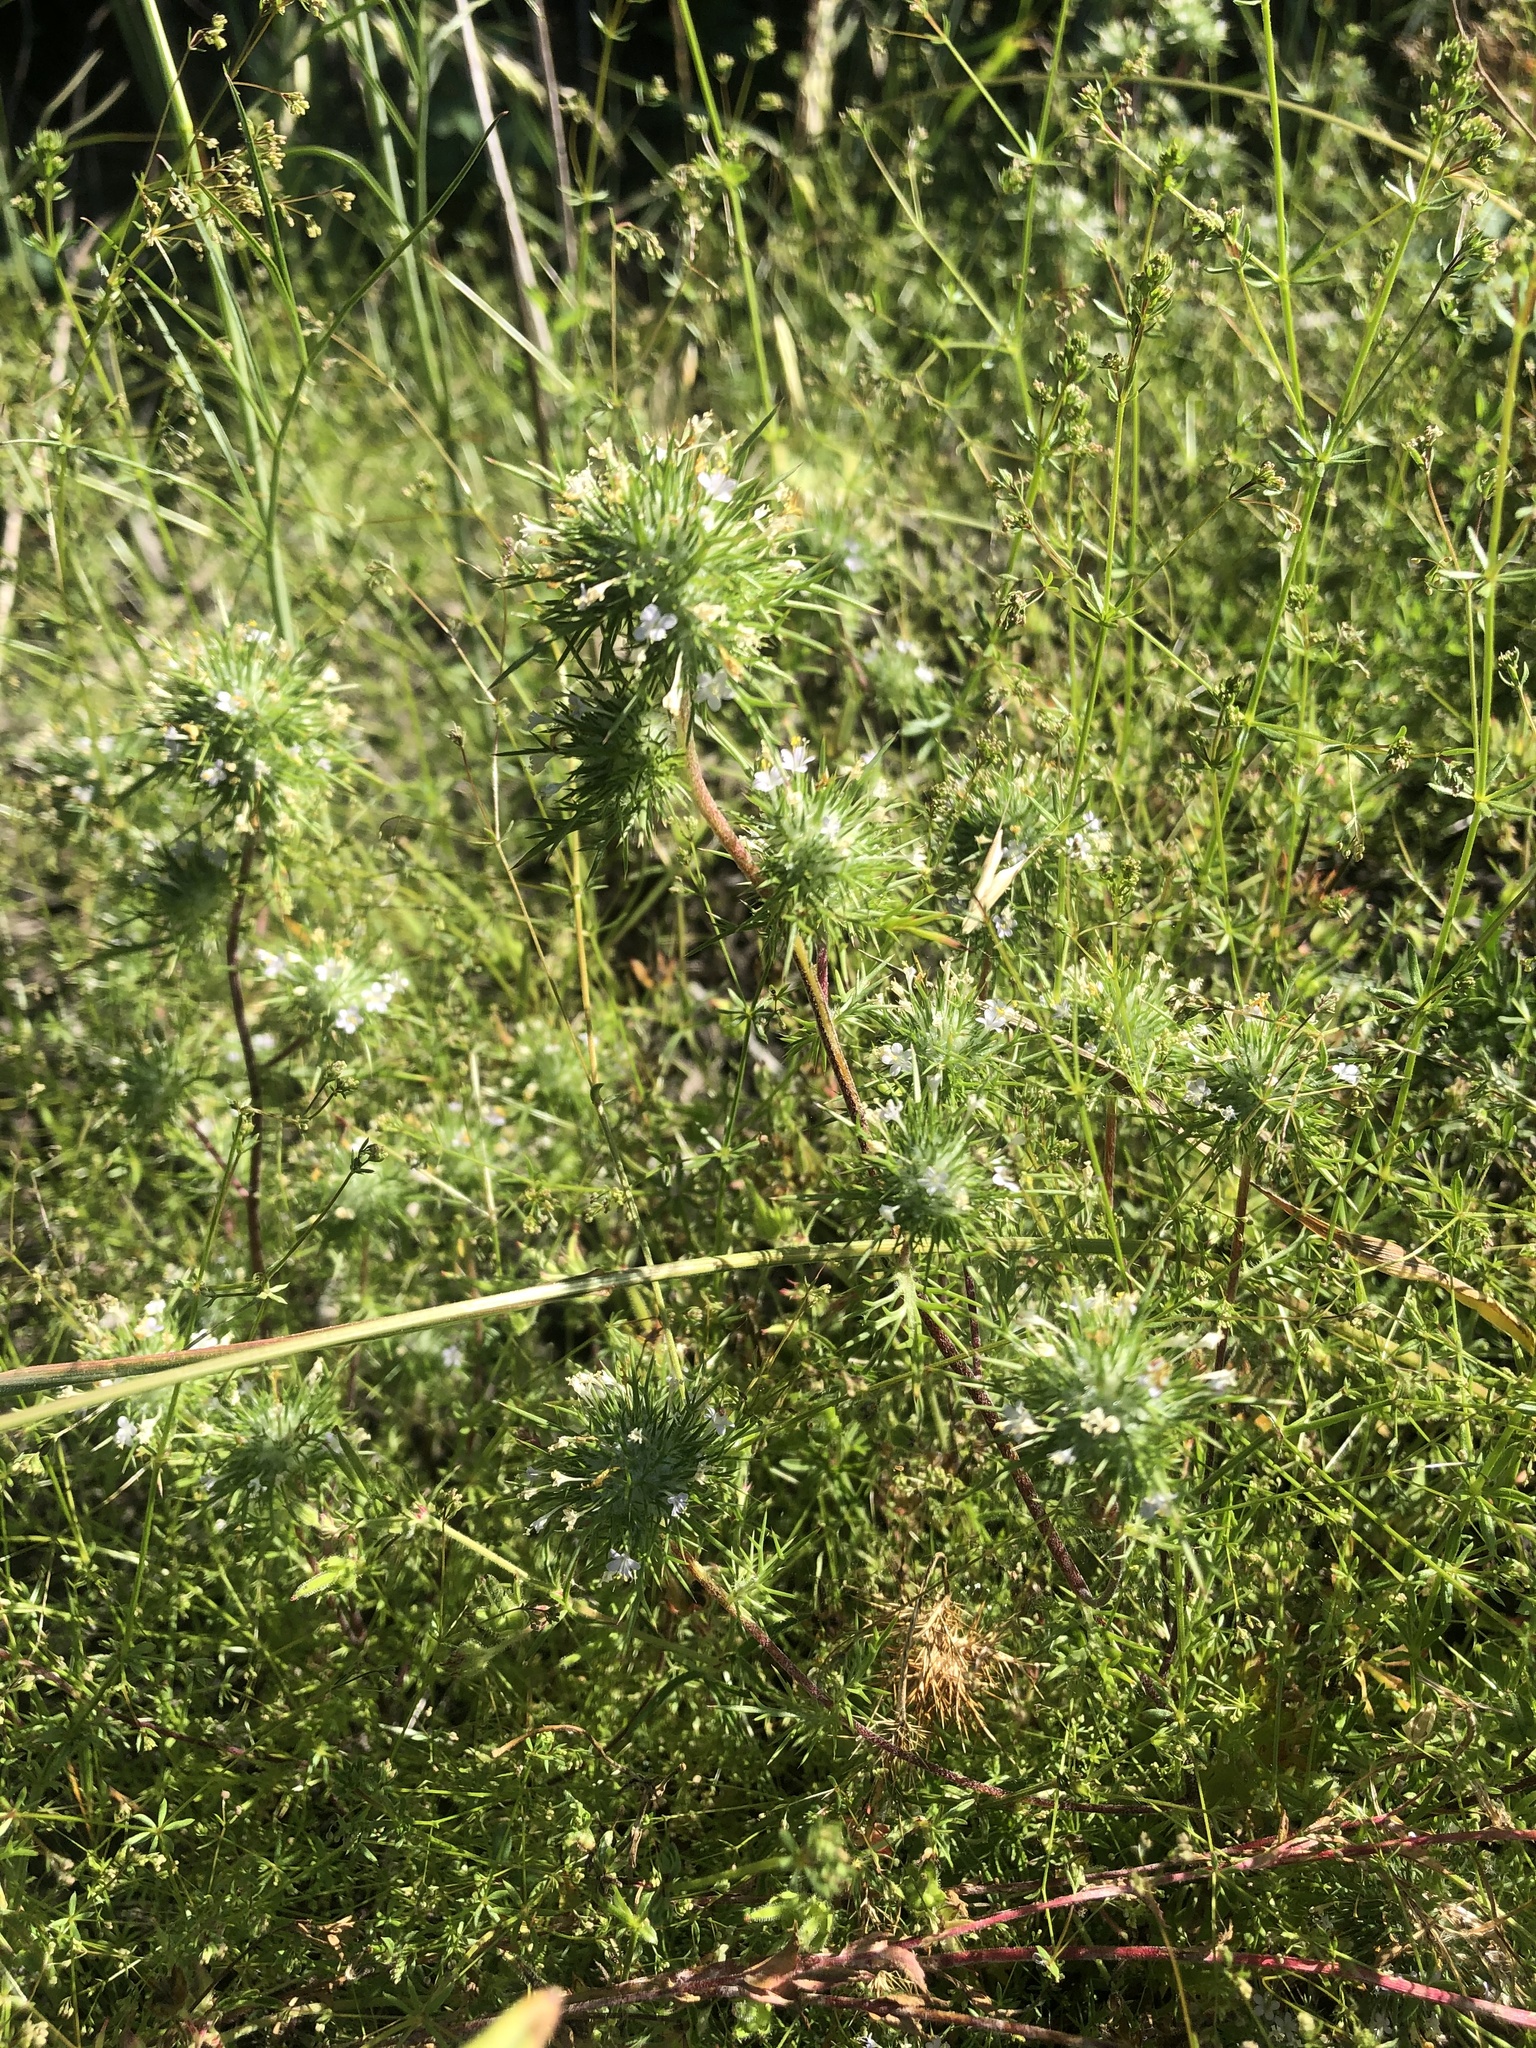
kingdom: Plantae
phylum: Tracheophyta
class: Magnoliopsida
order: Ericales
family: Polemoniaceae
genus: Navarretia
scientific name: Navarretia intertexta
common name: Needle-leaved navarretia
